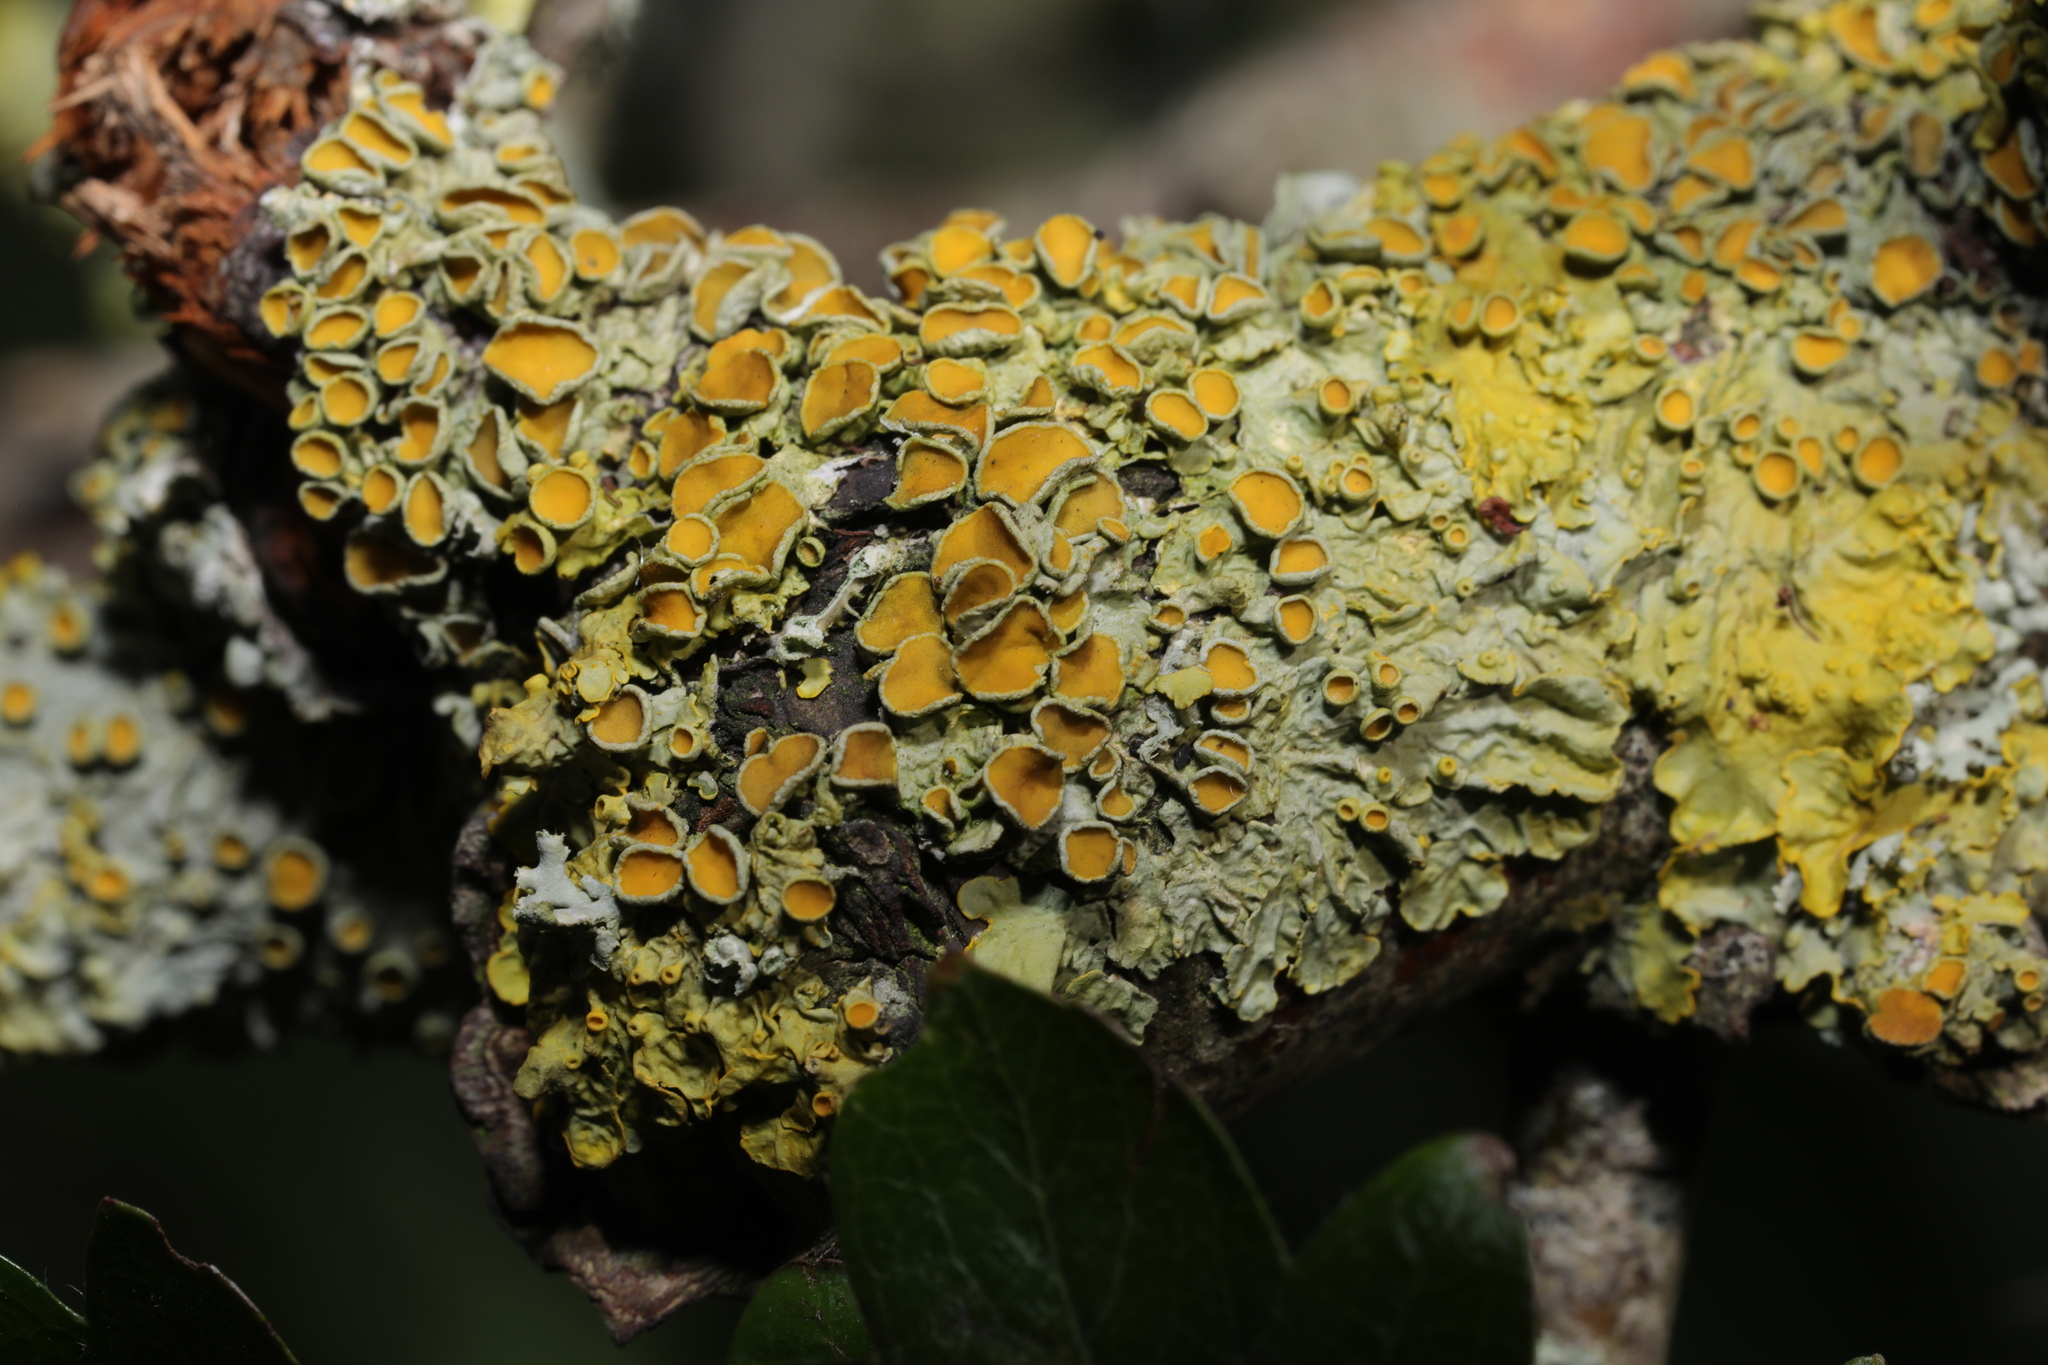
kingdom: Fungi
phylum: Ascomycota
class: Lecanoromycetes
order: Teloschistales
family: Teloschistaceae
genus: Xanthoria
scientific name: Xanthoria parietina
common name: Common orange lichen
